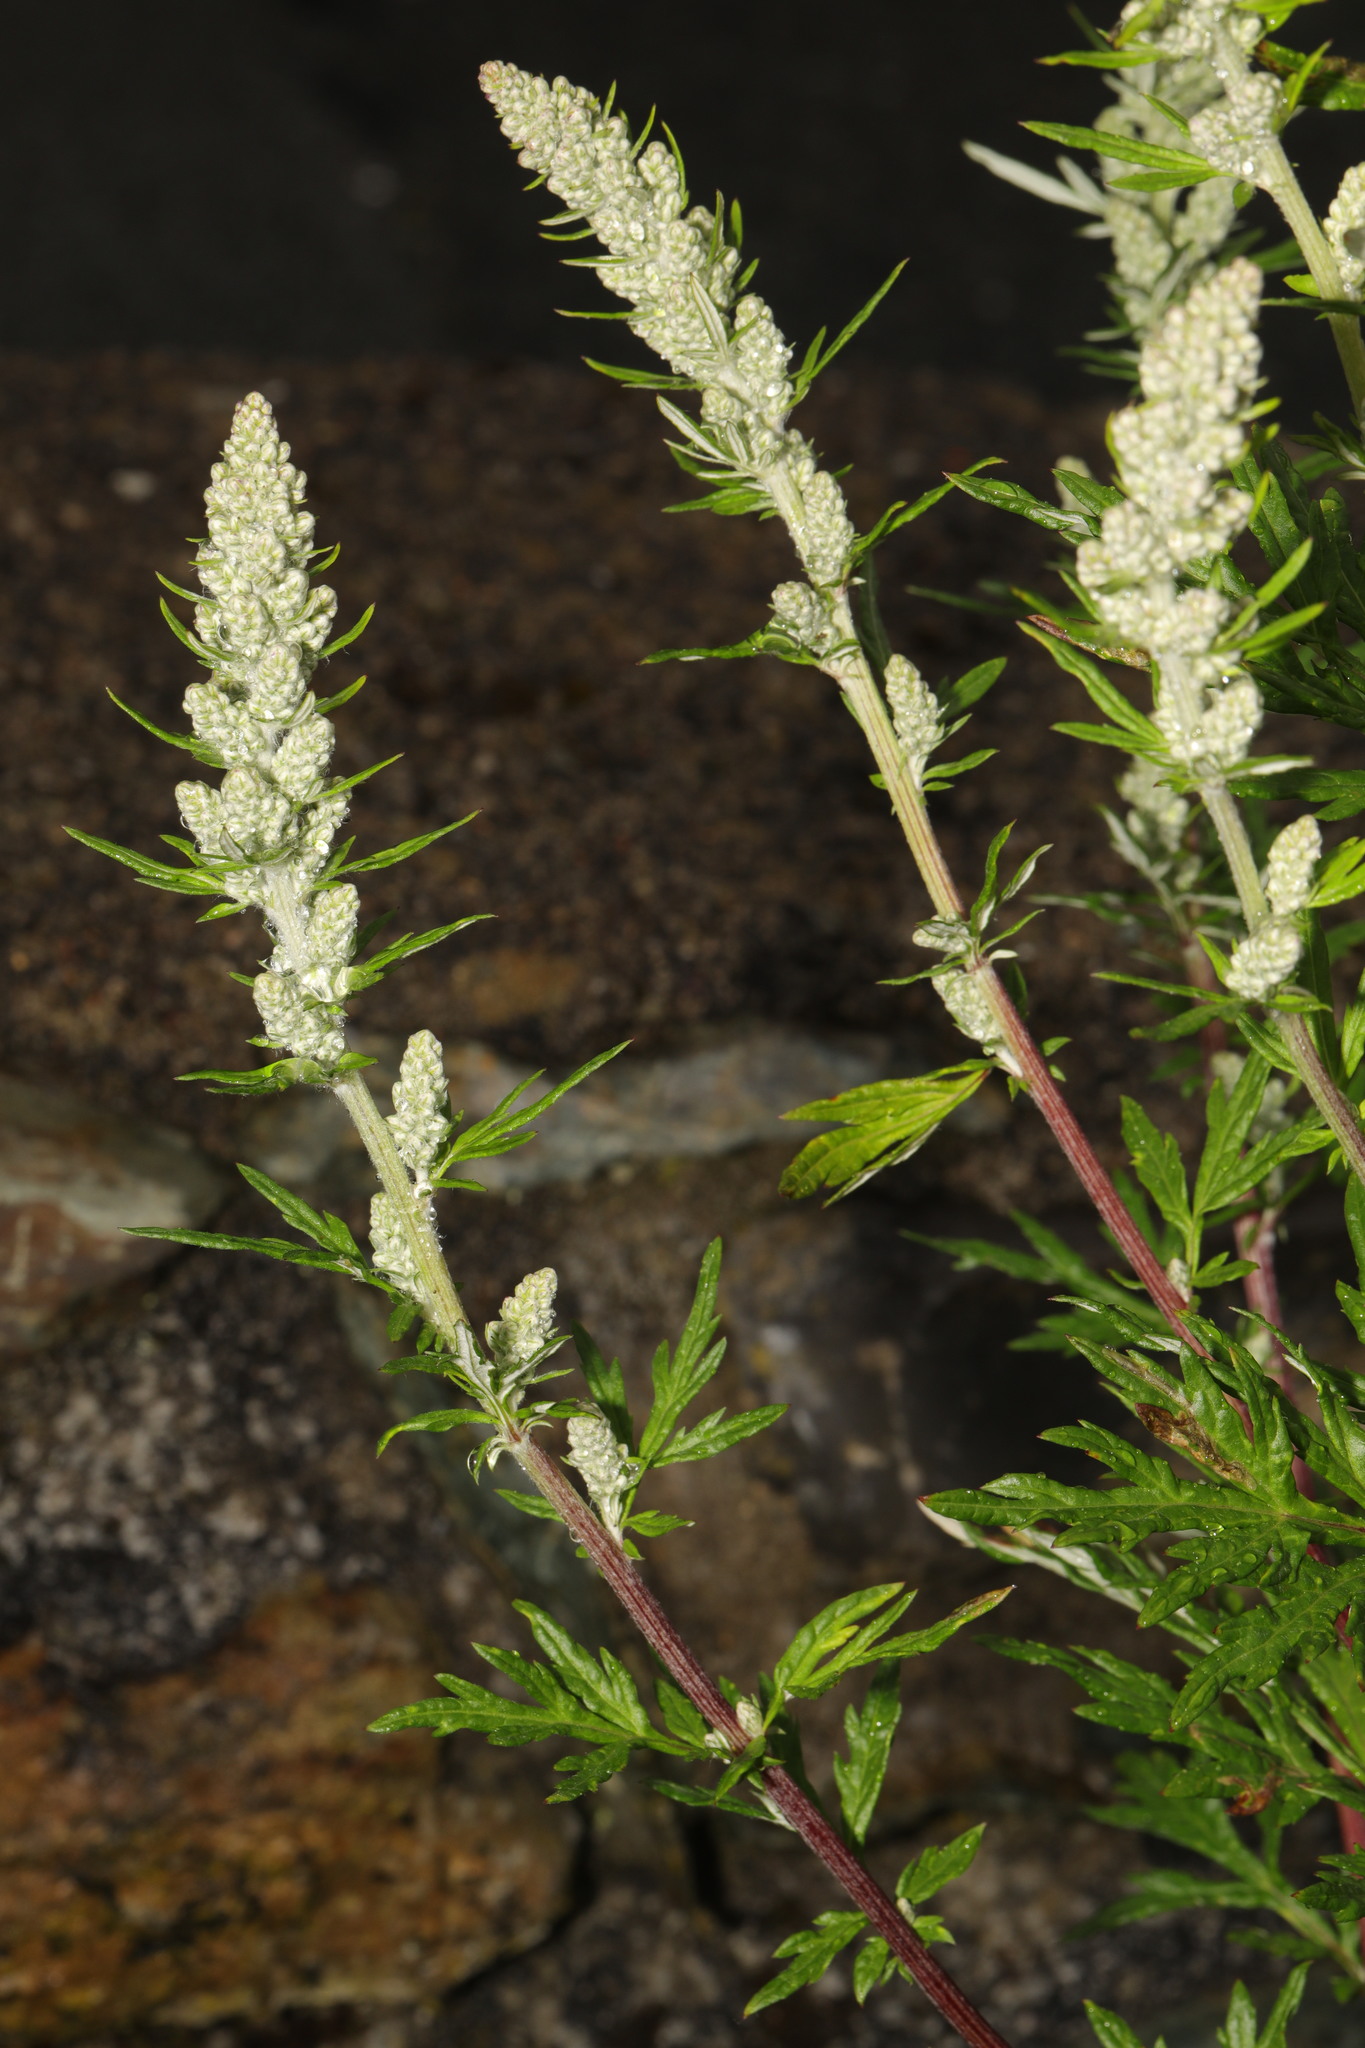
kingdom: Plantae
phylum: Tracheophyta
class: Magnoliopsida
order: Asterales
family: Asteraceae
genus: Artemisia
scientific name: Artemisia vulgaris
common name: Mugwort
